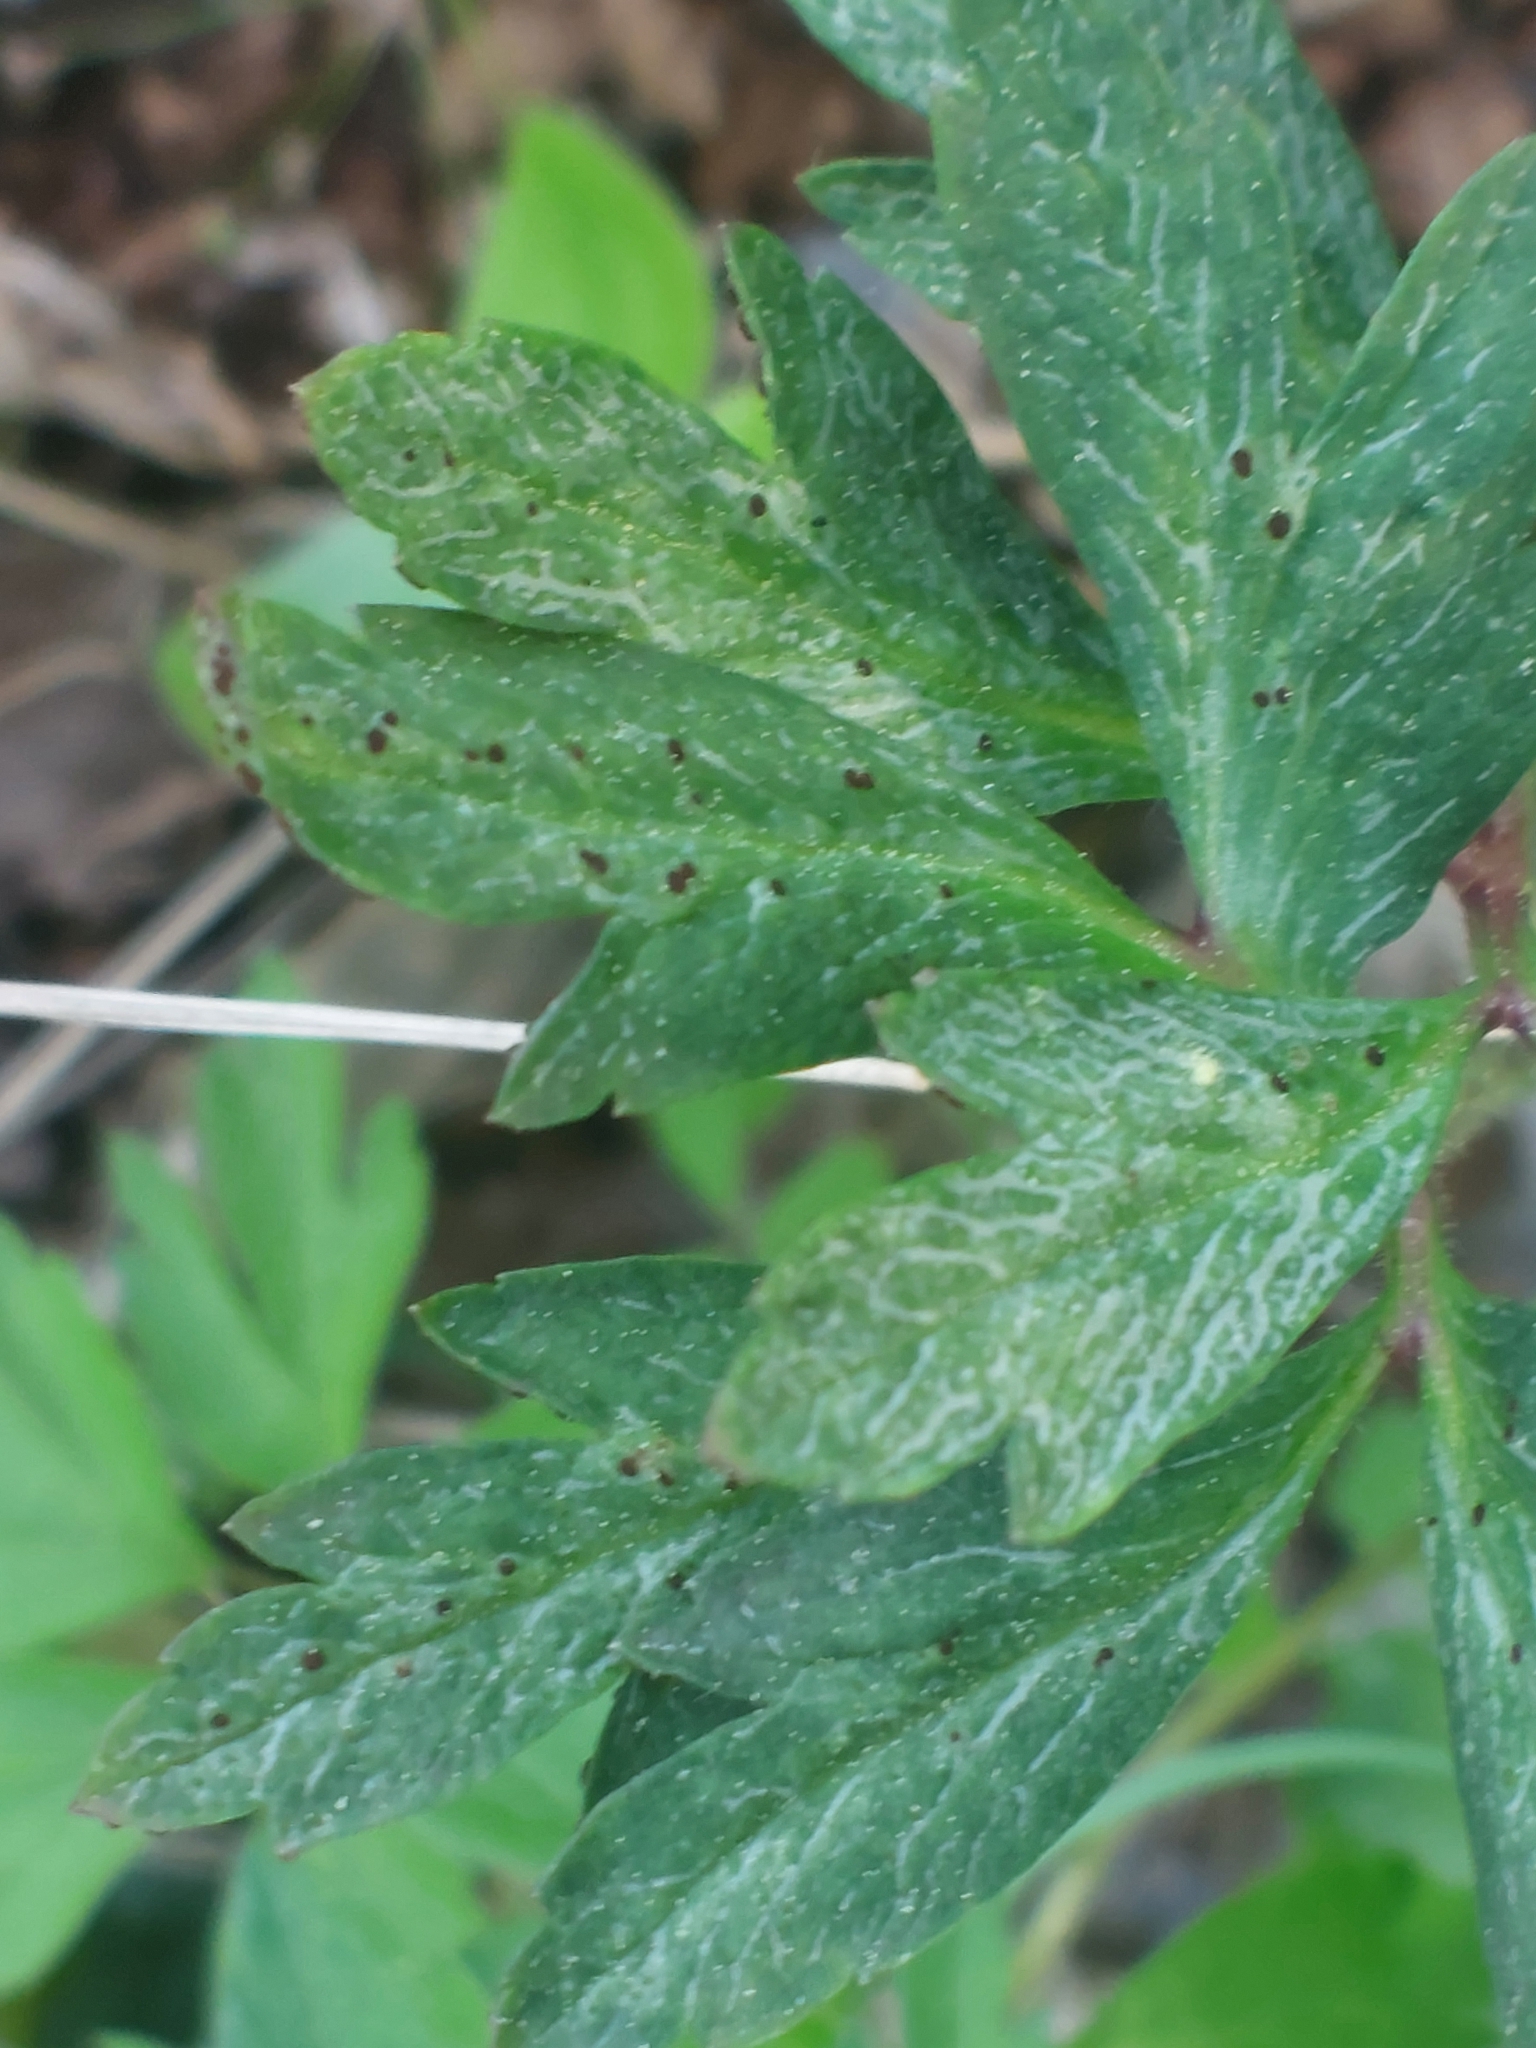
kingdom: Fungi
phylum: Basidiomycota
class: Pucciniomycetes
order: Pucciniales
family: Tranzscheliaceae
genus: Tranzschelia
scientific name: Tranzschelia anemones
